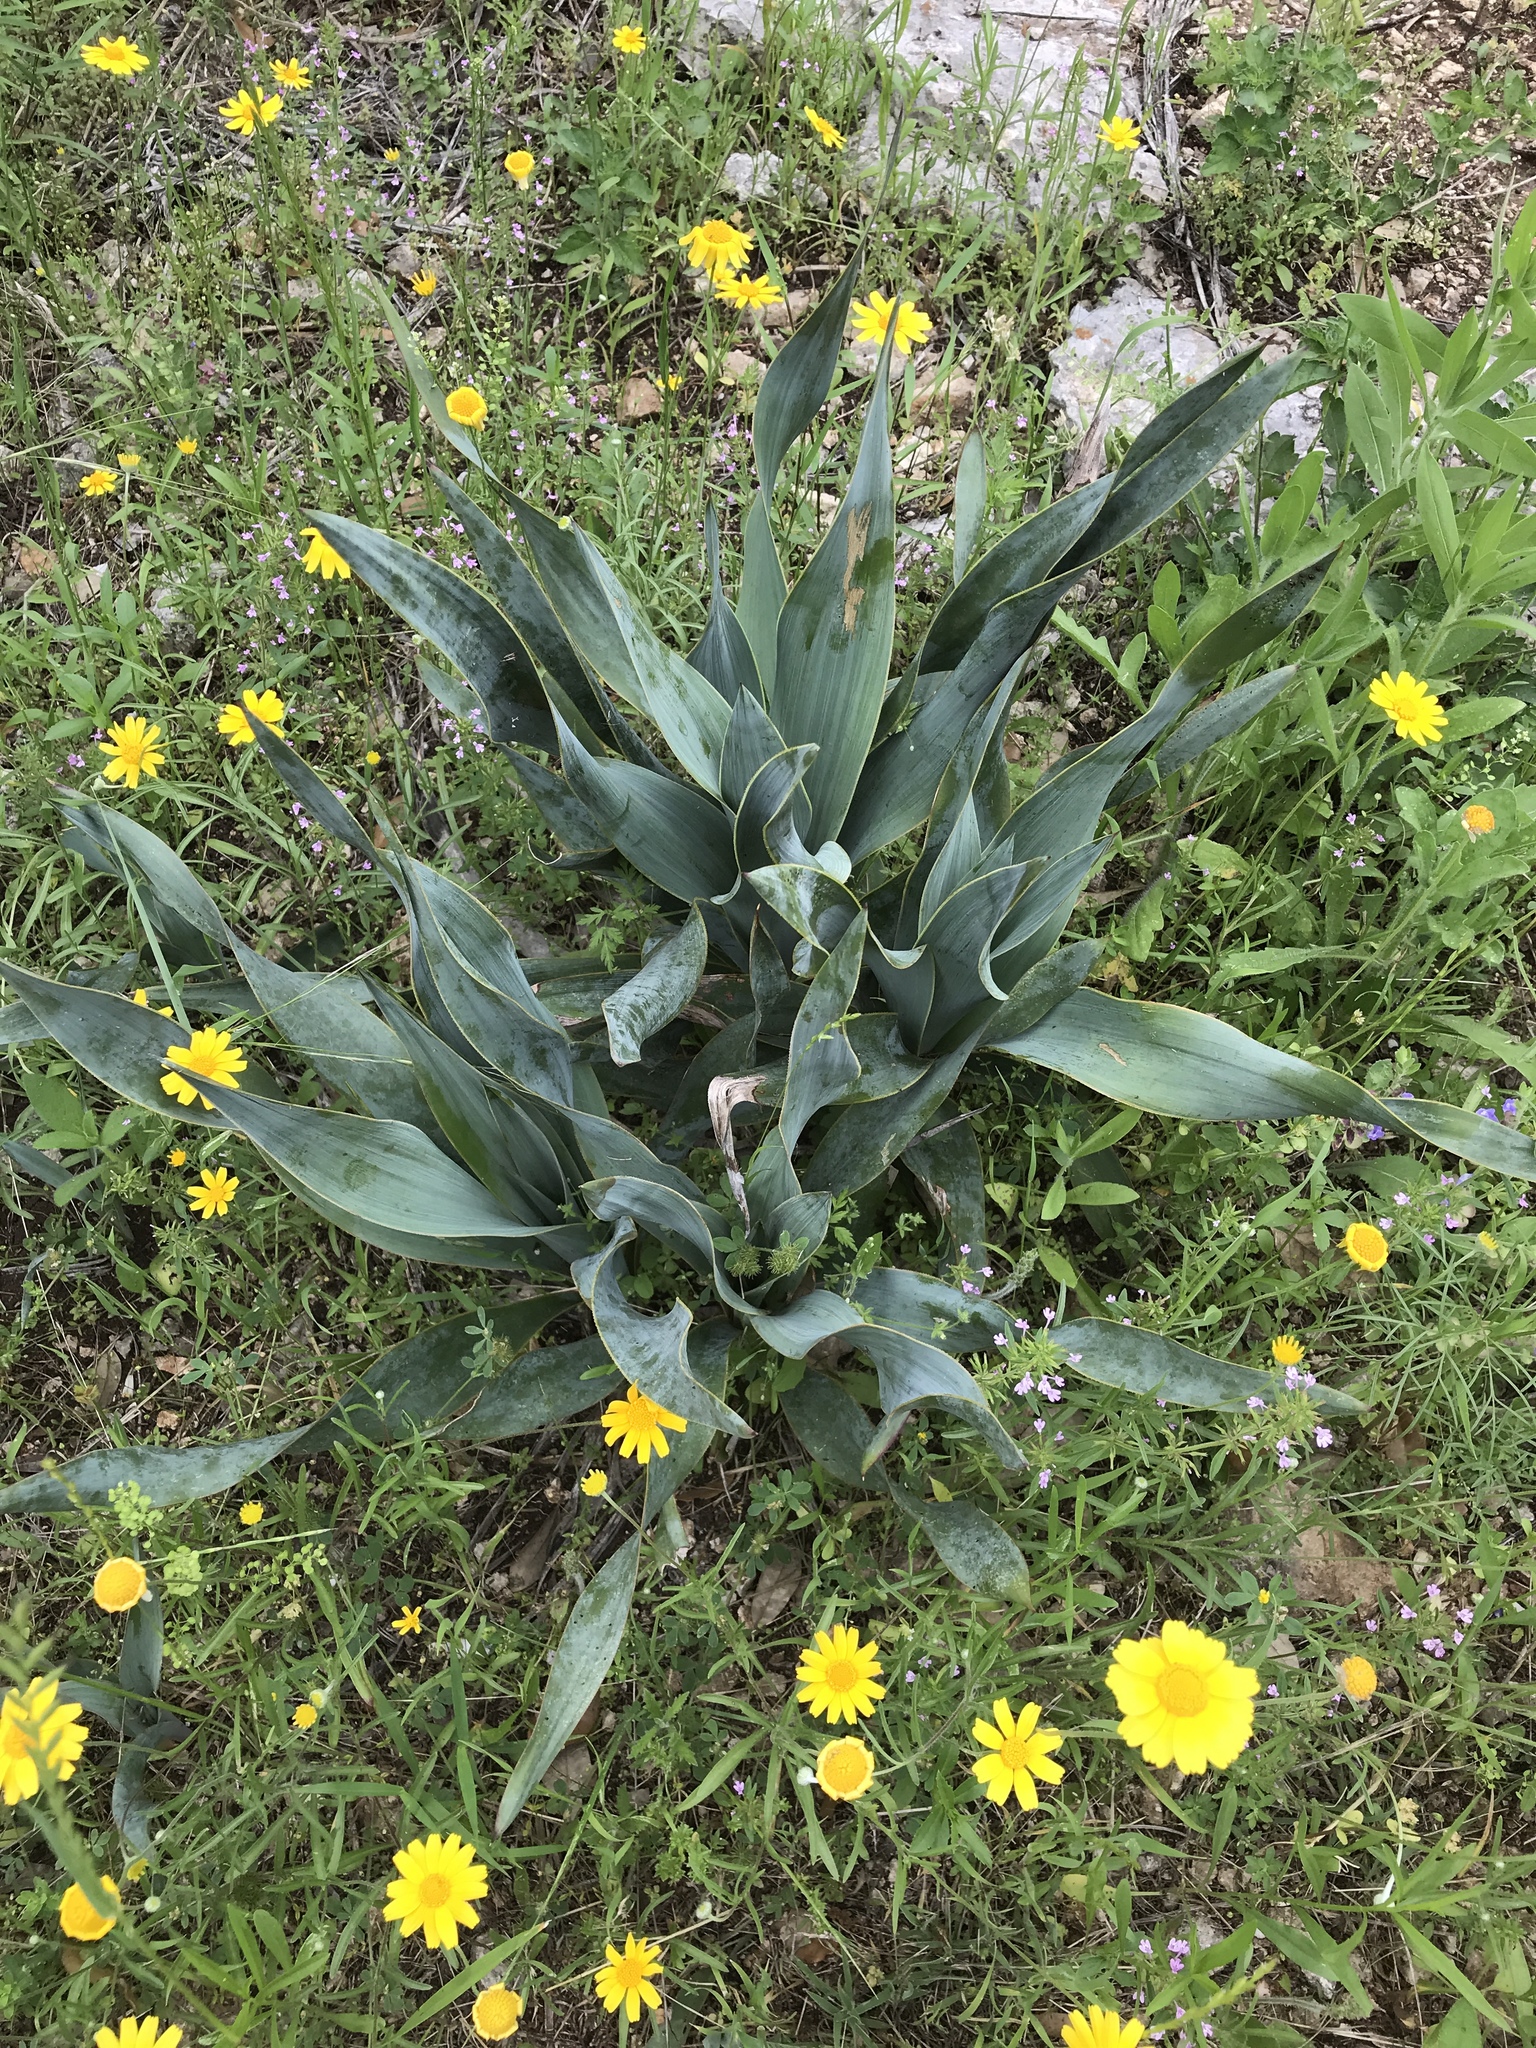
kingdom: Plantae
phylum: Tracheophyta
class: Liliopsida
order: Asparagales
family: Asparagaceae
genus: Yucca
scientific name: Yucca rupicola
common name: Twisted-leaf spanish-dagger
